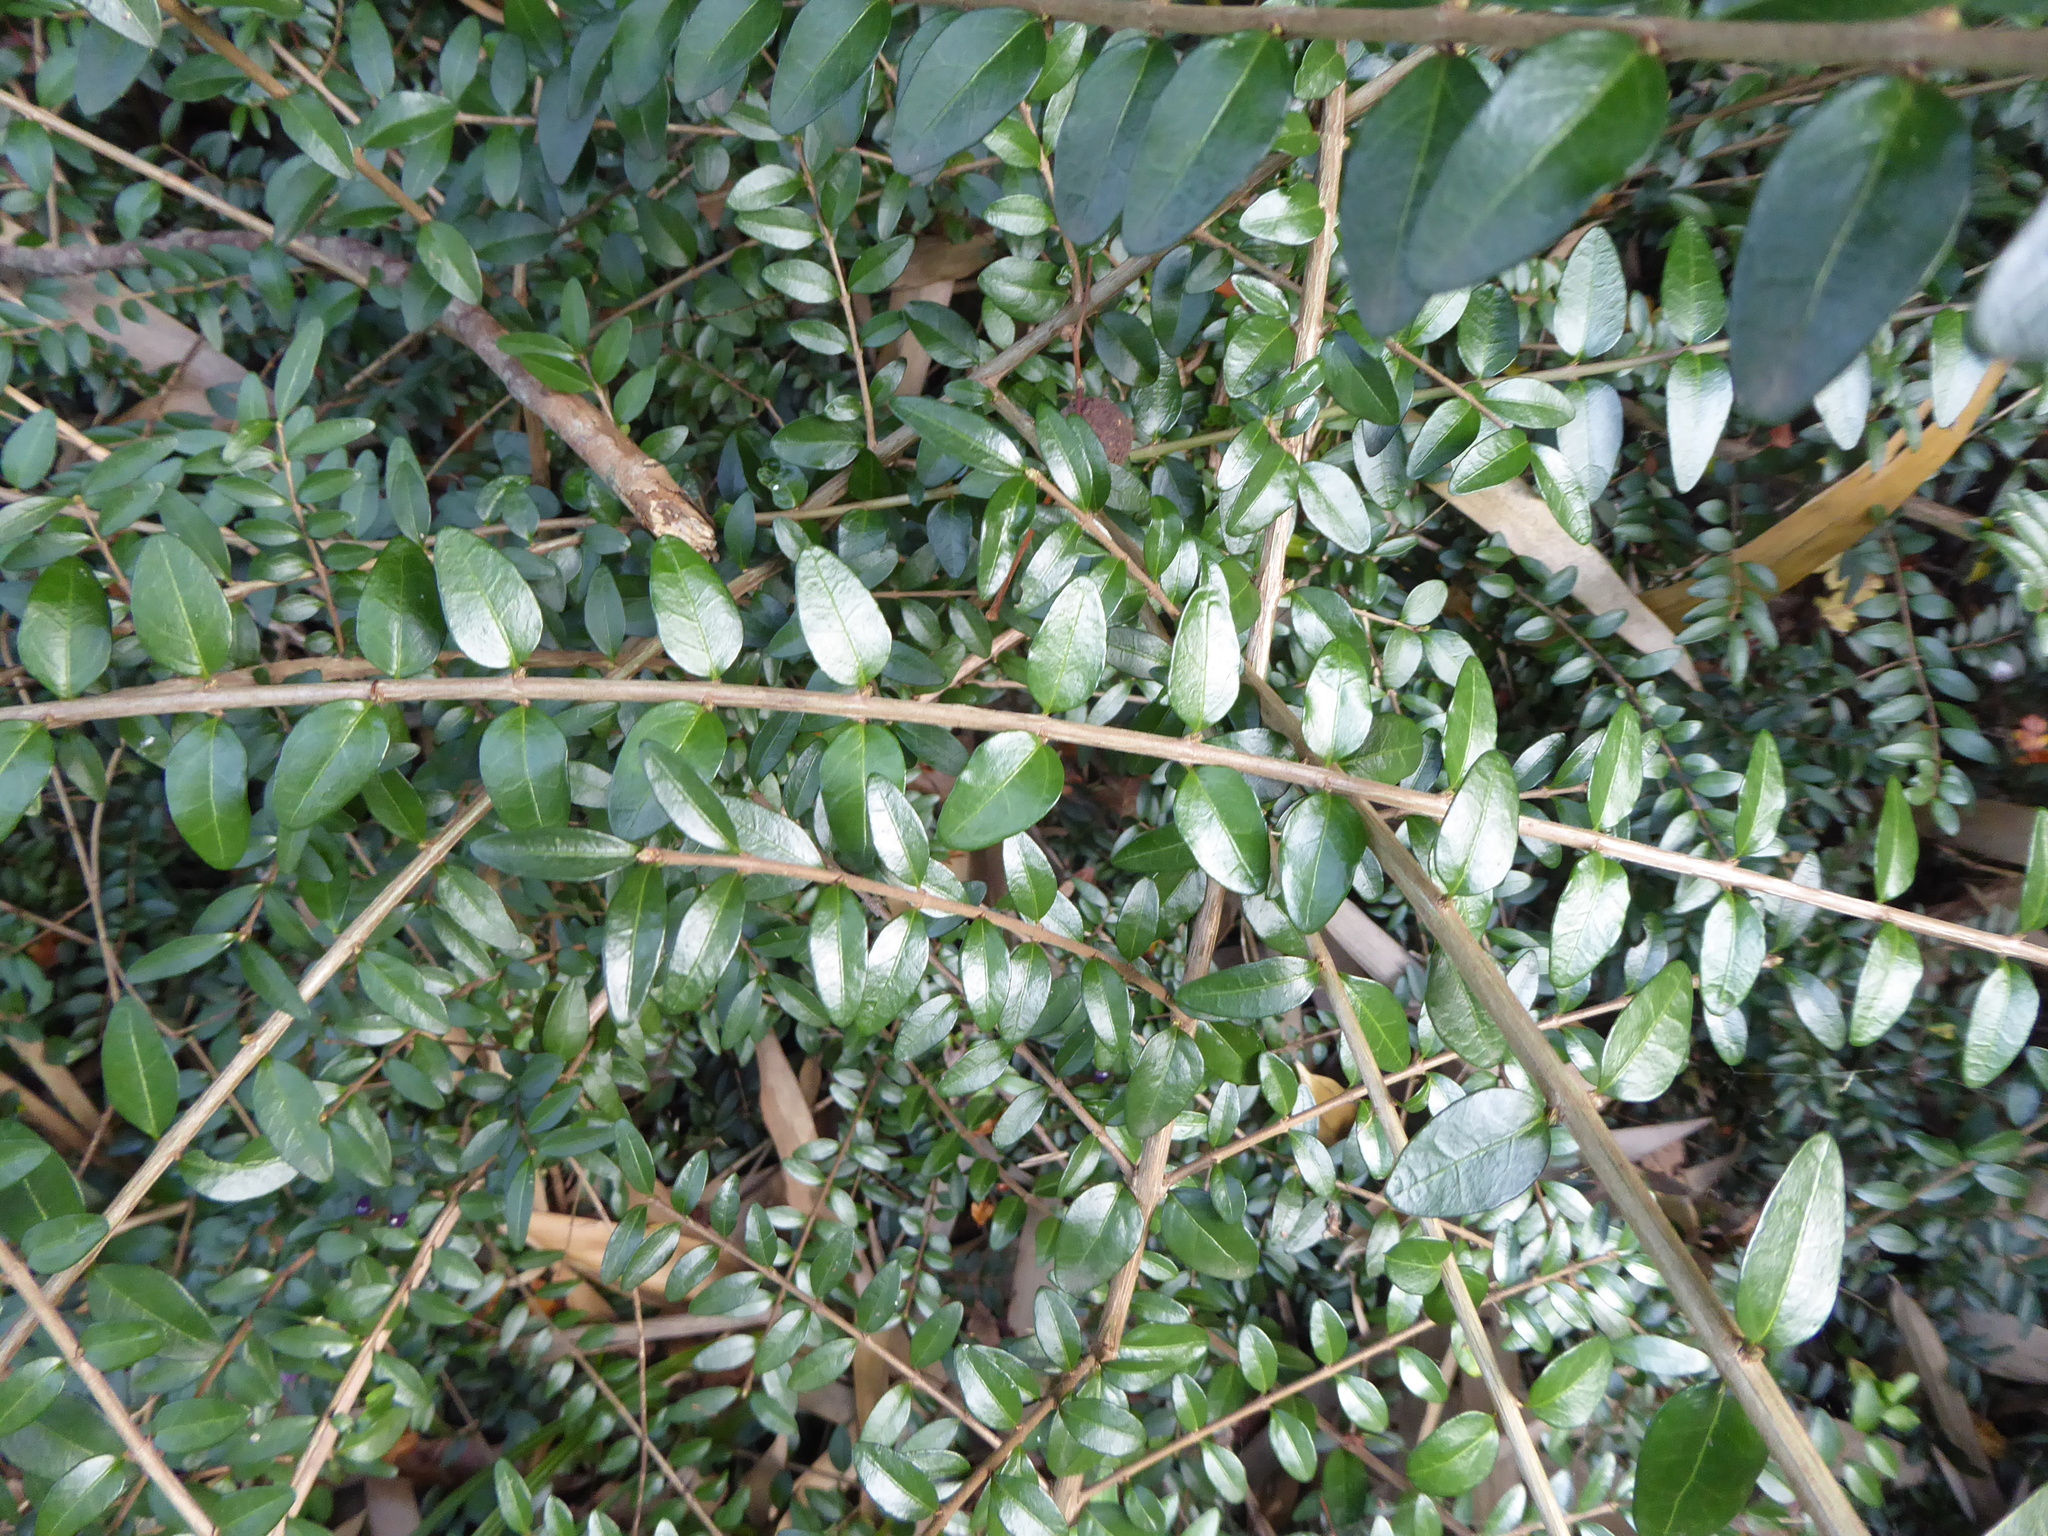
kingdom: Plantae
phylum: Tracheophyta
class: Magnoliopsida
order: Dipsacales
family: Caprifoliaceae
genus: Lonicera
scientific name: Lonicera ligustrina
